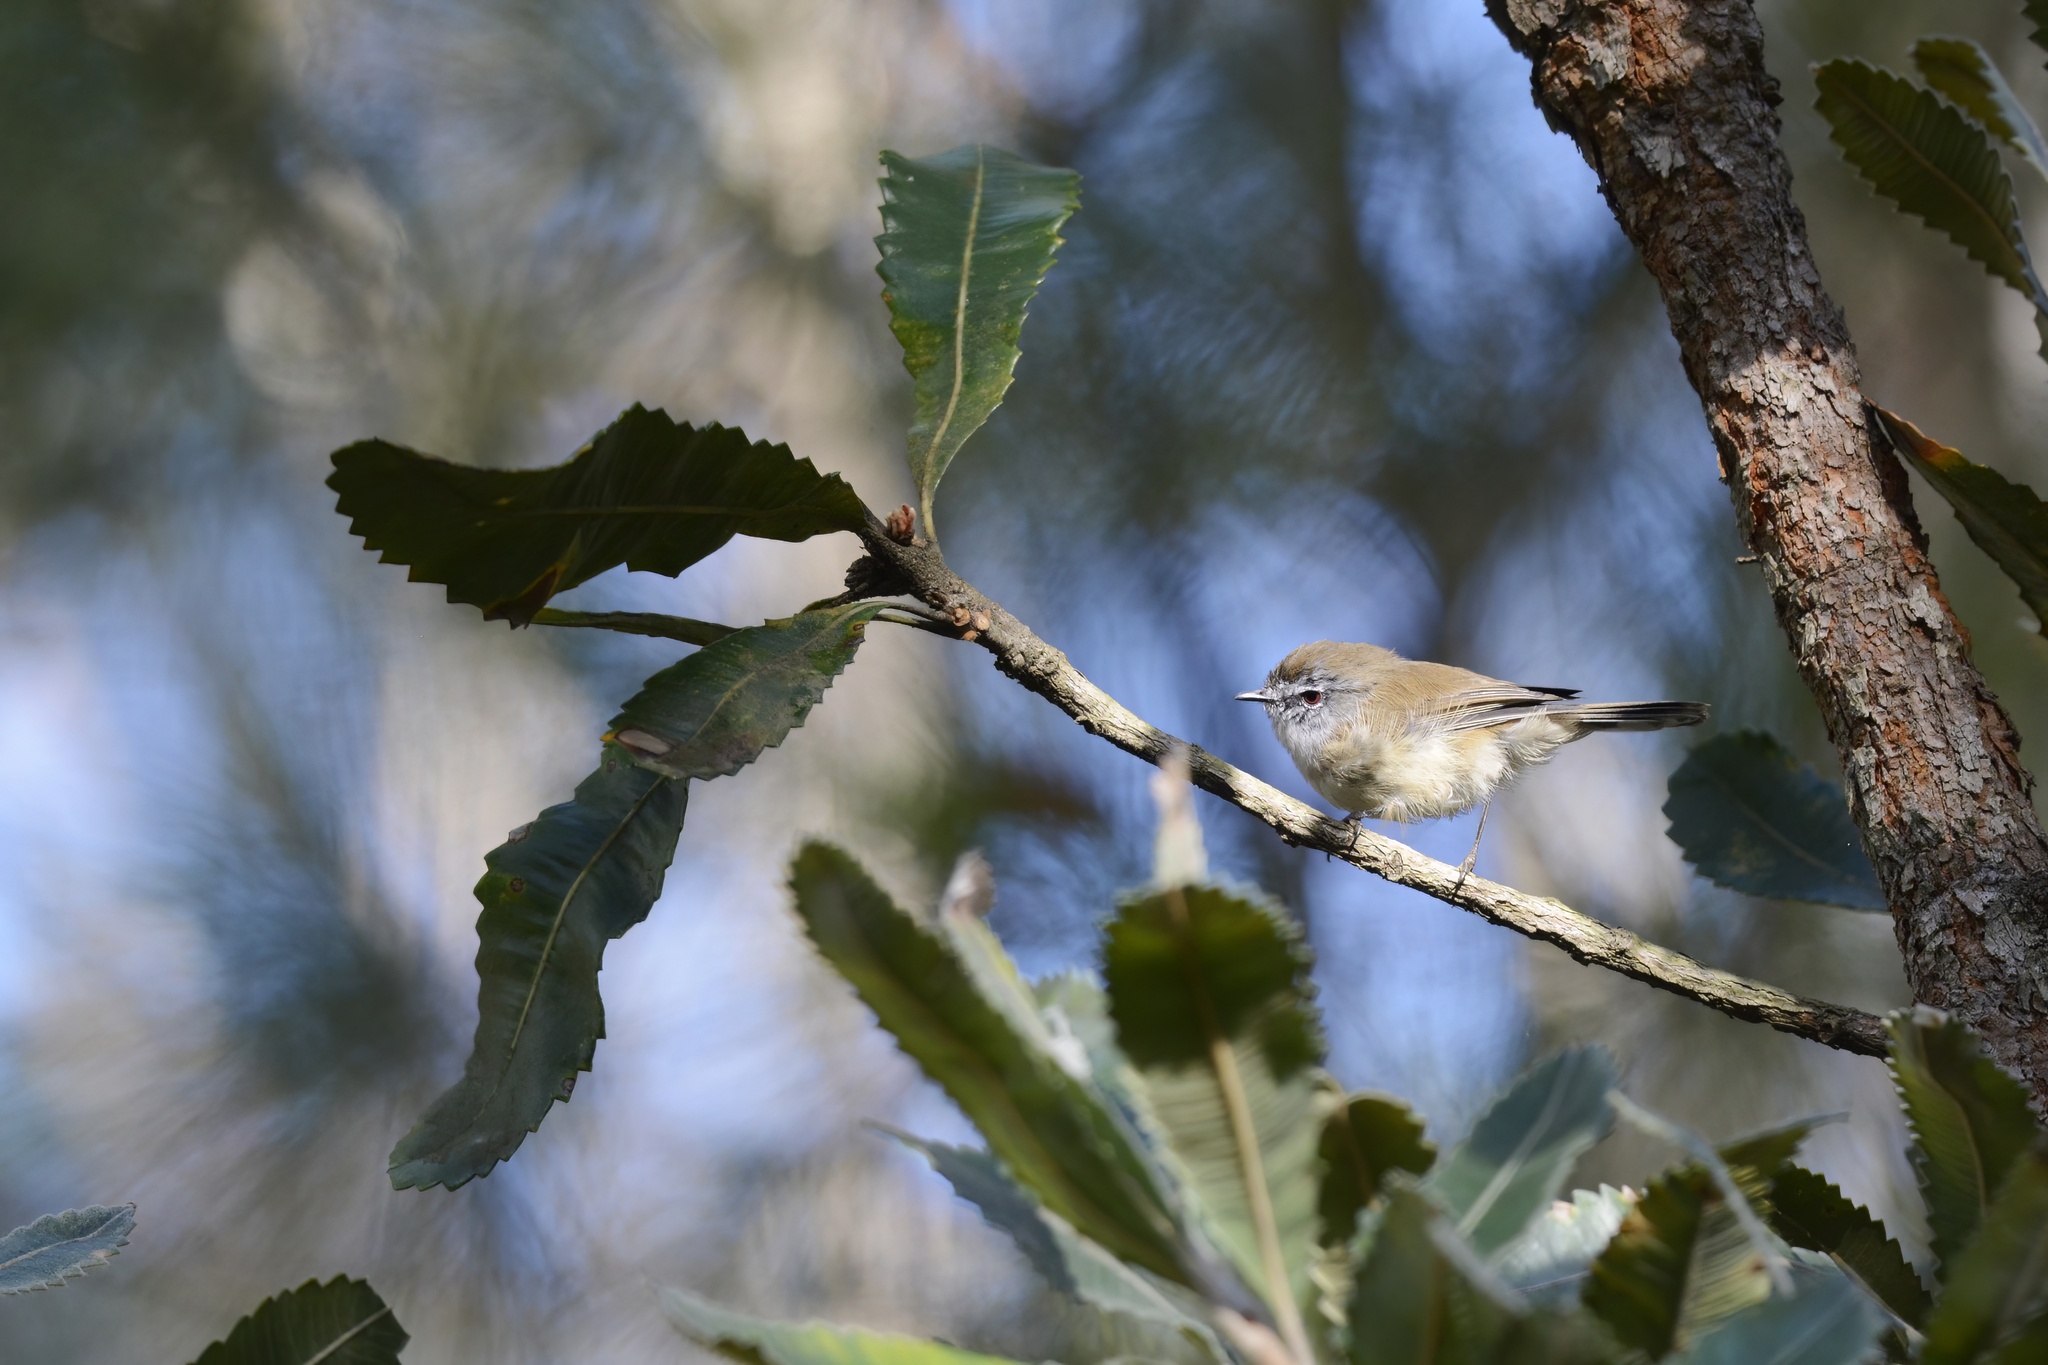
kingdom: Animalia
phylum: Chordata
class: Aves
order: Passeriformes
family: Acanthizidae
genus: Gerygone
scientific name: Gerygone mouki
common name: Brown gerygone
